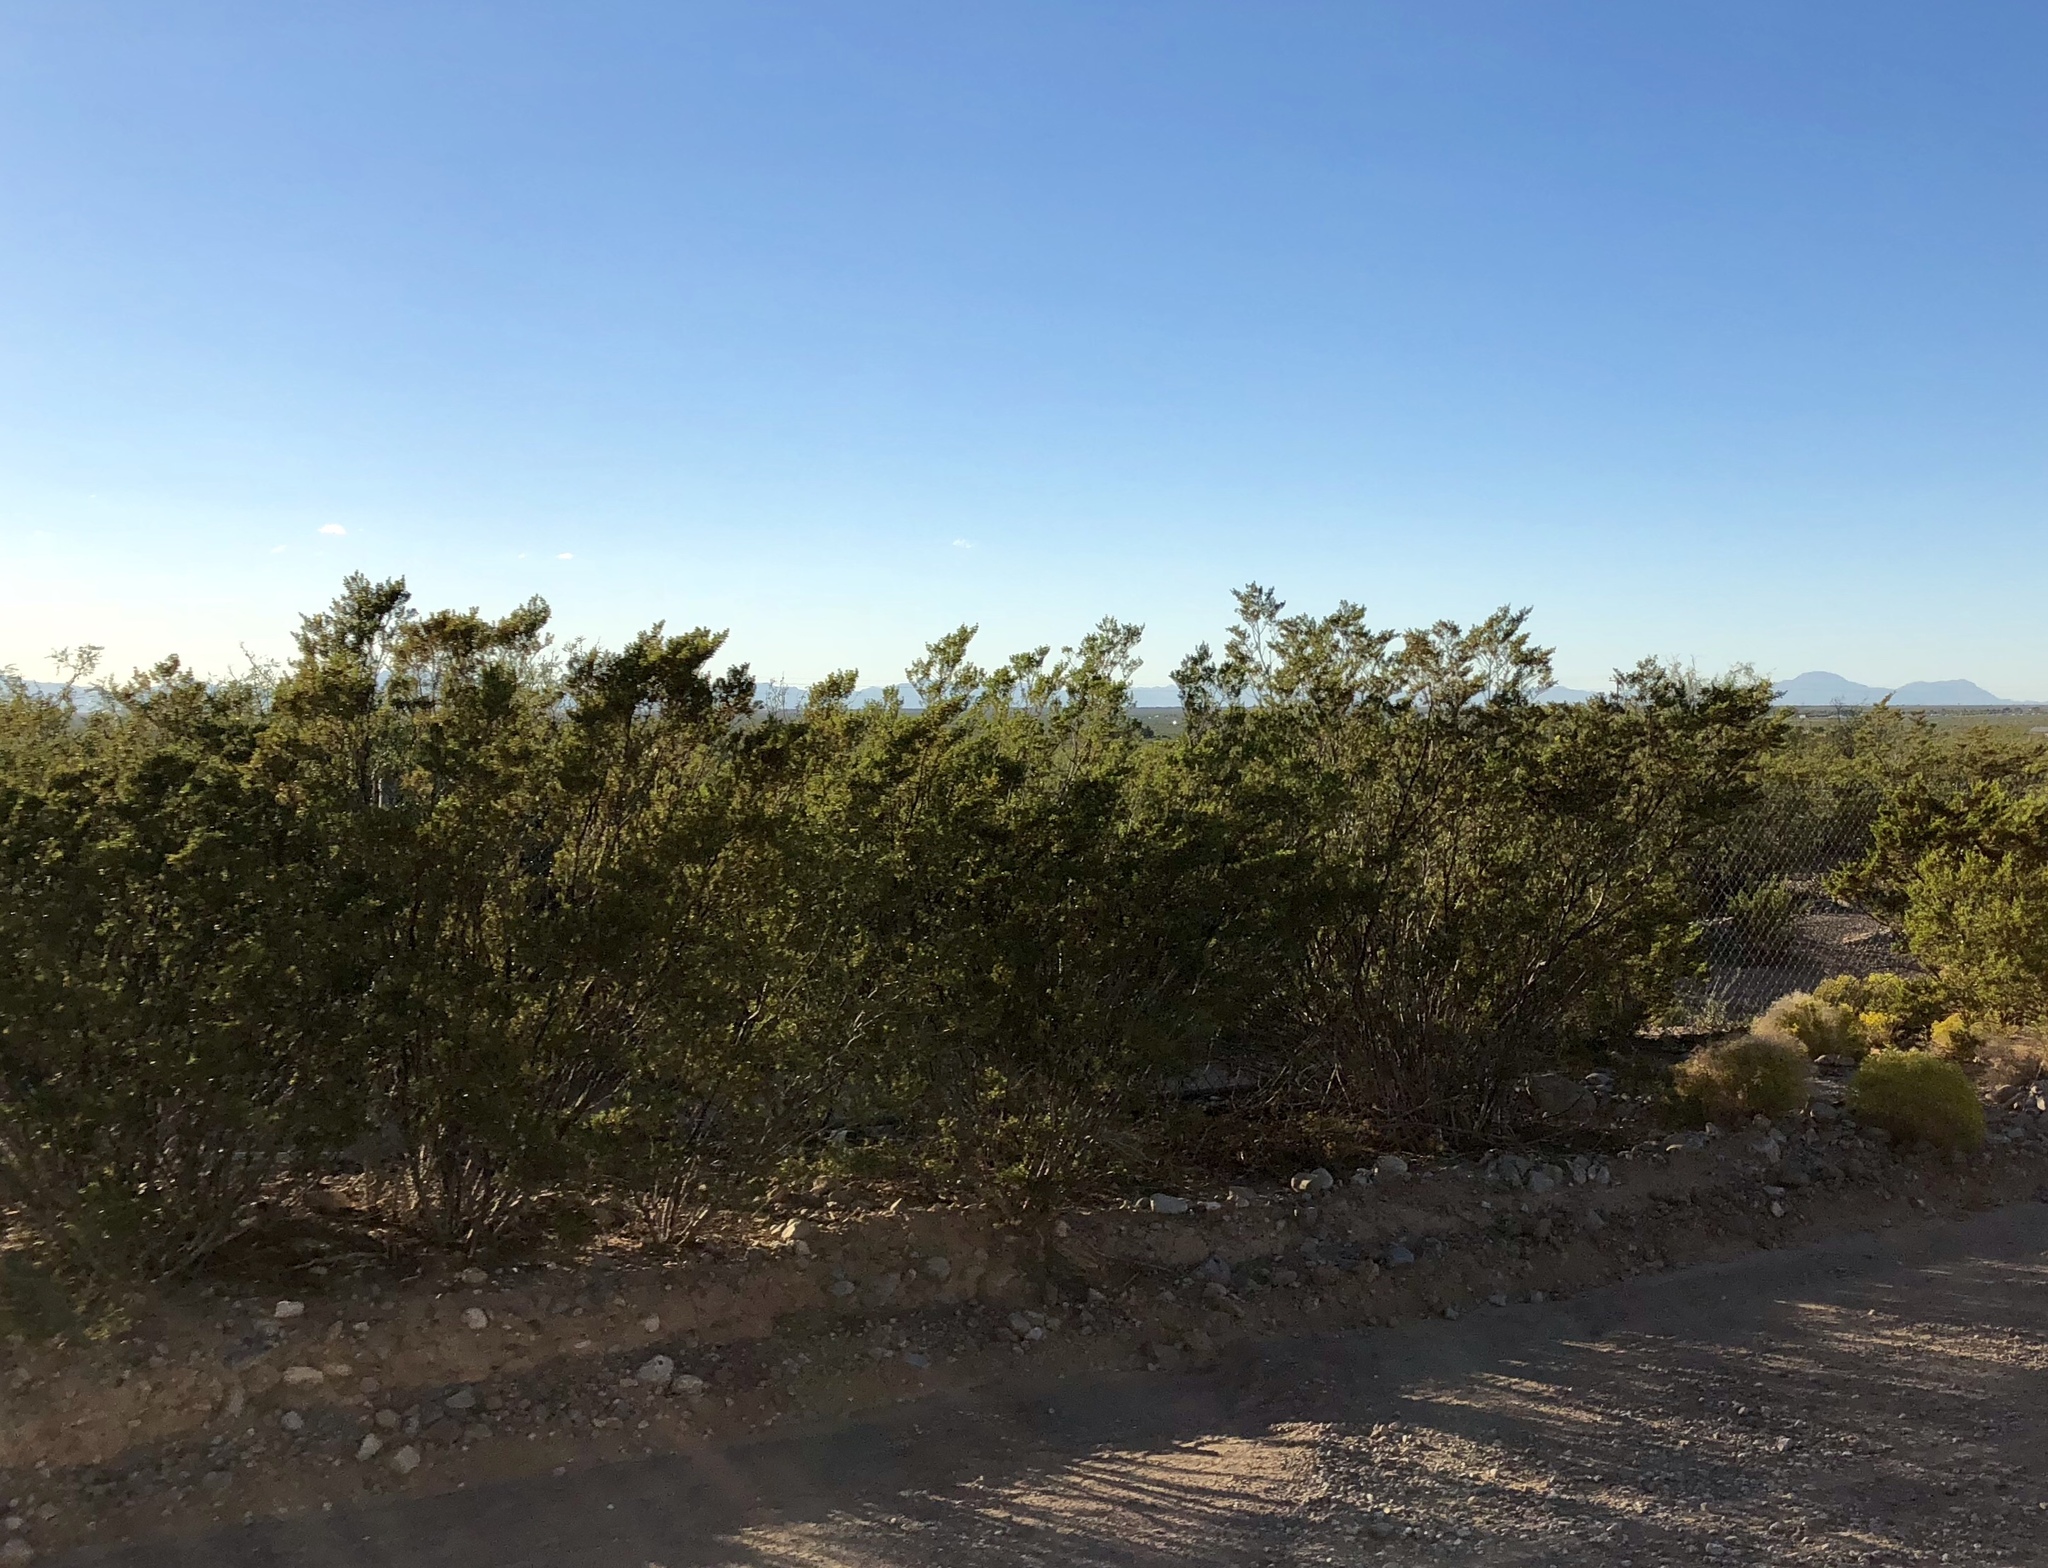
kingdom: Plantae
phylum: Tracheophyta
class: Magnoliopsida
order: Zygophyllales
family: Zygophyllaceae
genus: Larrea
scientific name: Larrea tridentata
